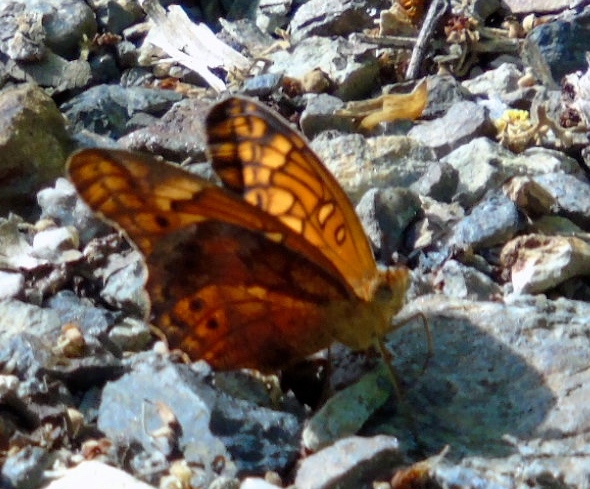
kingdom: Animalia
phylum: Arthropoda
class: Insecta
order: Lepidoptera
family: Nymphalidae
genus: Euptoieta
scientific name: Euptoieta claudia
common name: Variegated fritillary
